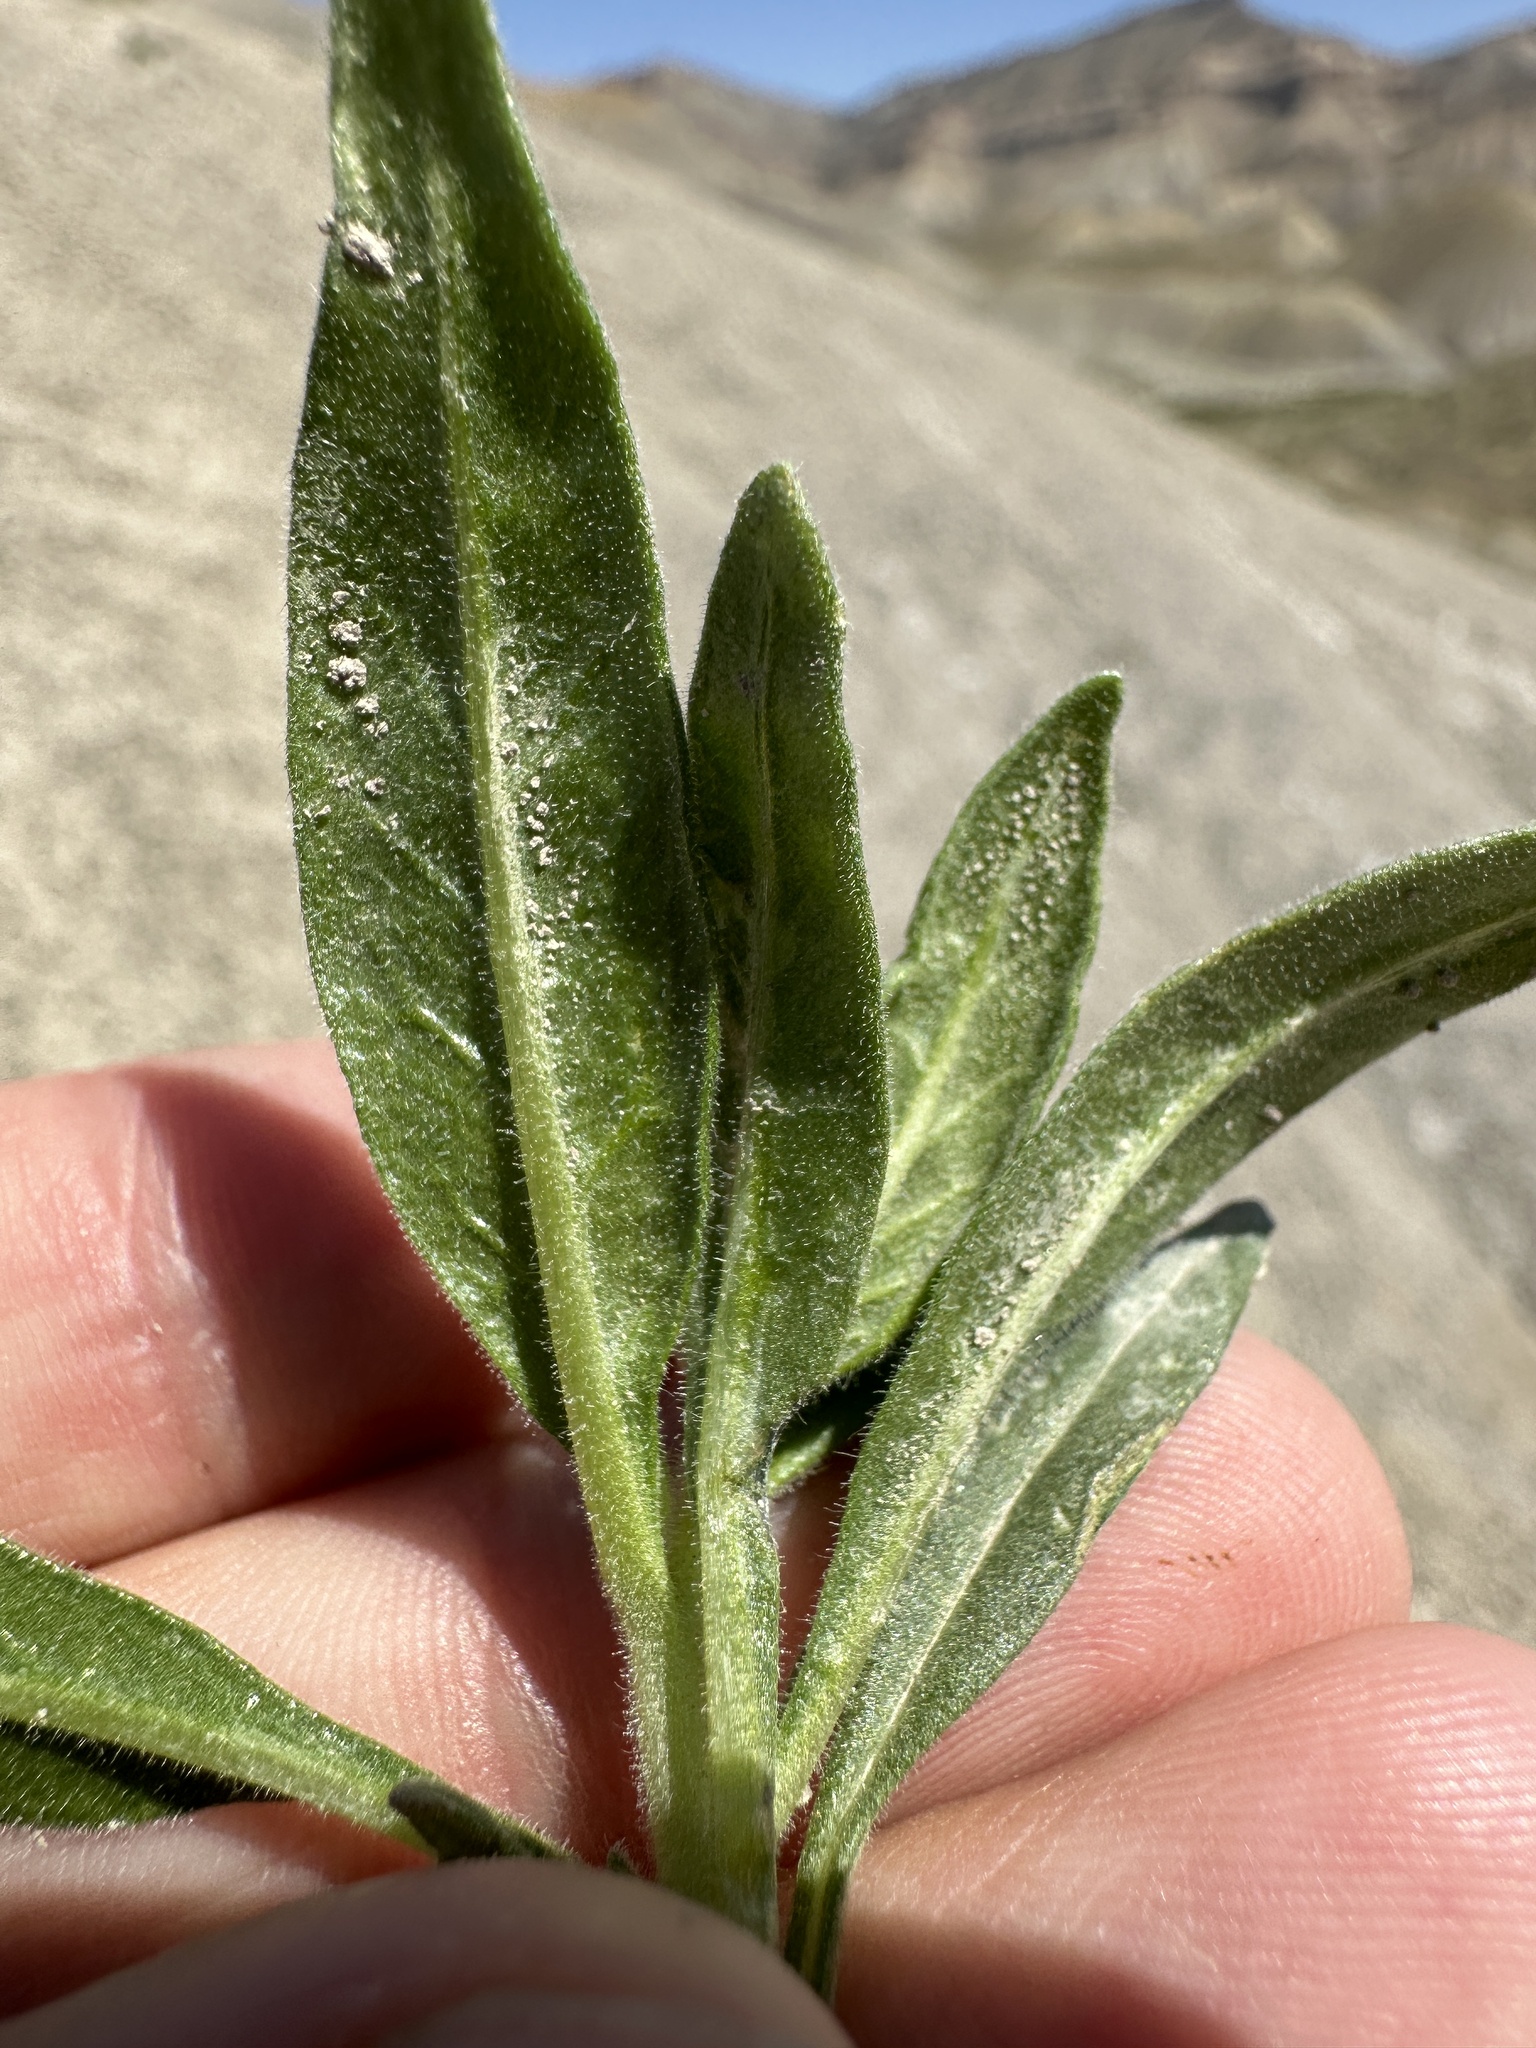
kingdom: Plantae
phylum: Tracheophyta
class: Magnoliopsida
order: Cornales
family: Loasaceae
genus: Mentzelia
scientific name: Mentzelia thompsonii
